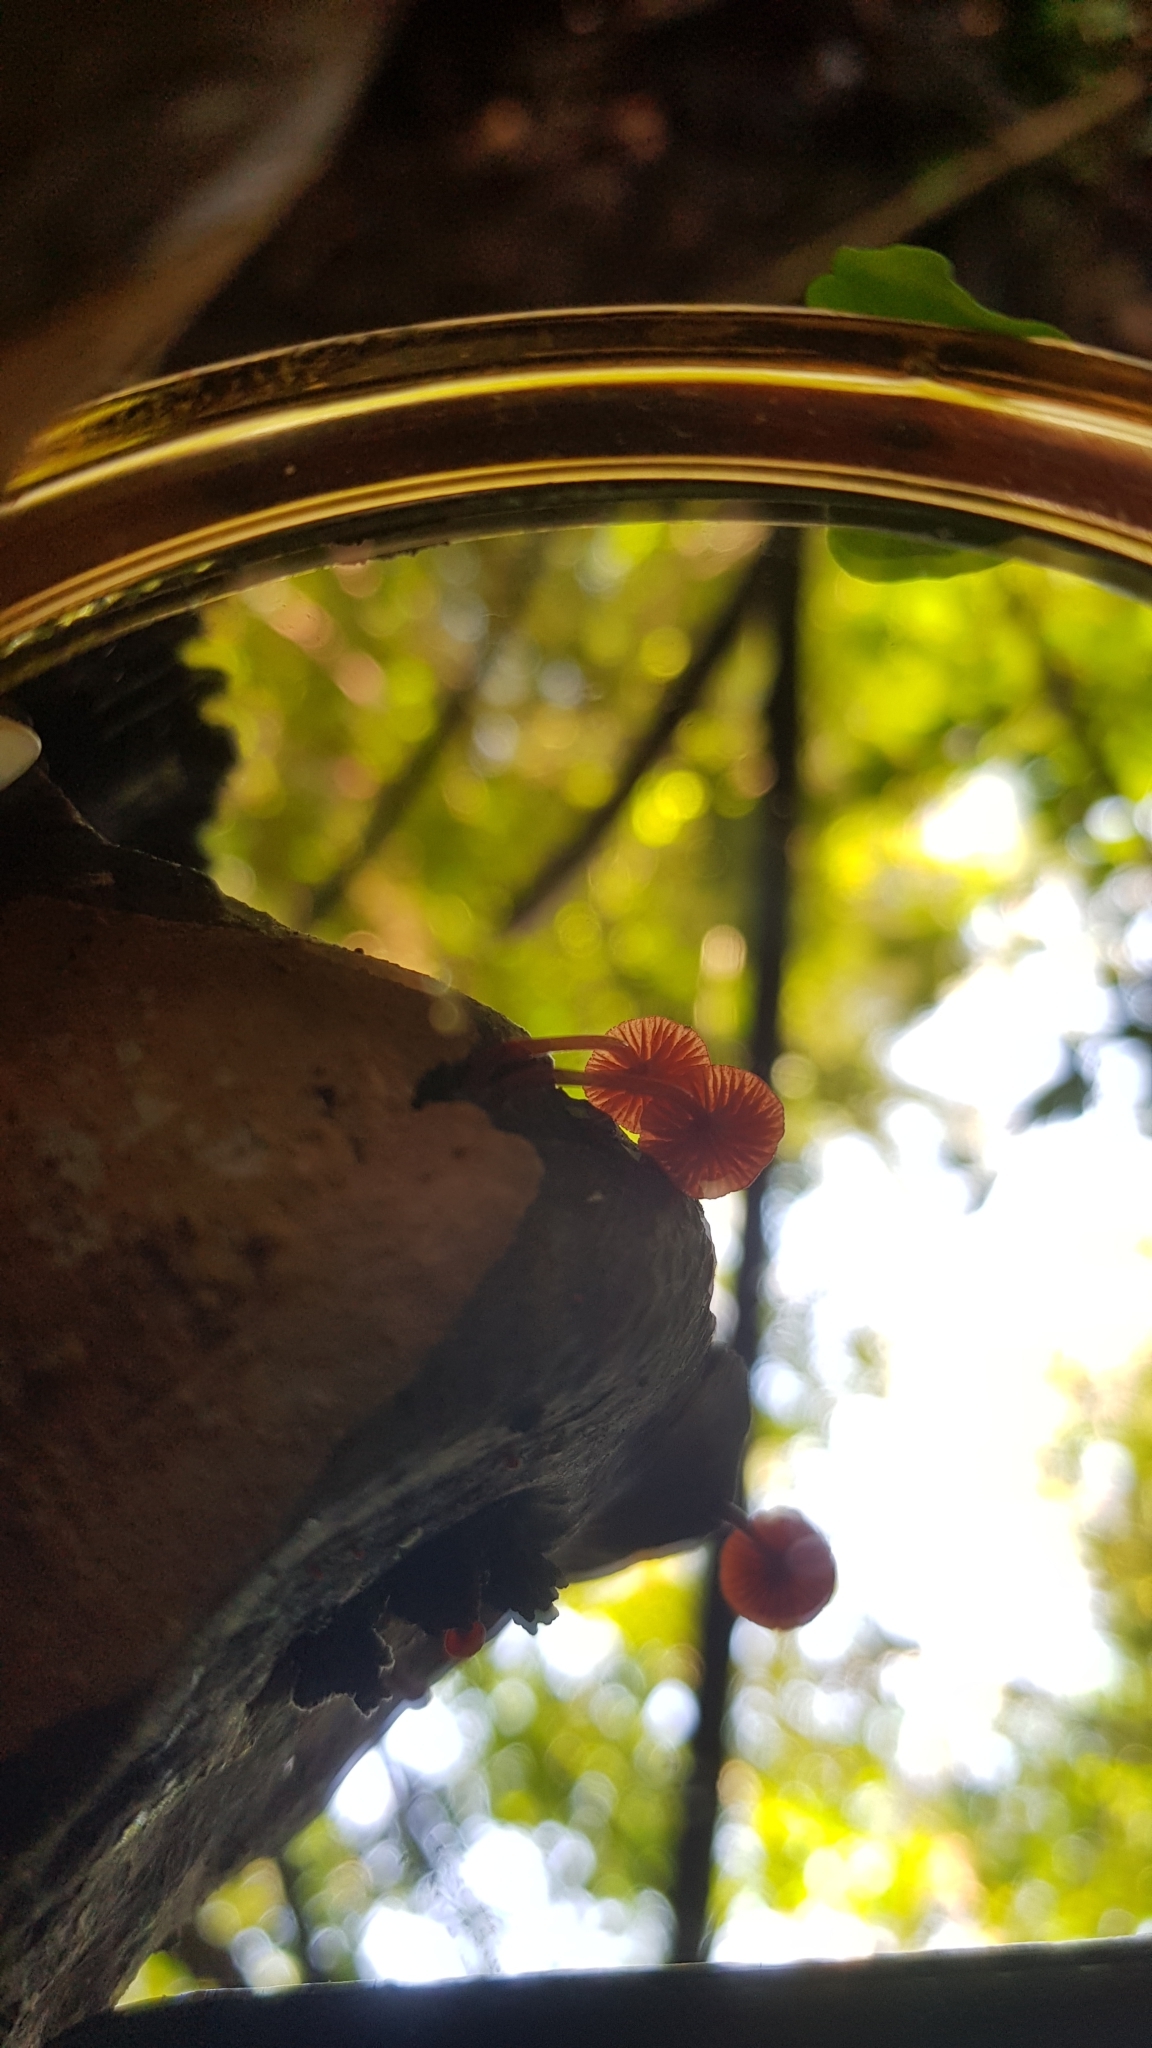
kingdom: Fungi
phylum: Basidiomycota
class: Agaricomycetes
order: Agaricales
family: Mycenaceae
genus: Cruentomycena
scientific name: Cruentomycena viscidocruenta
